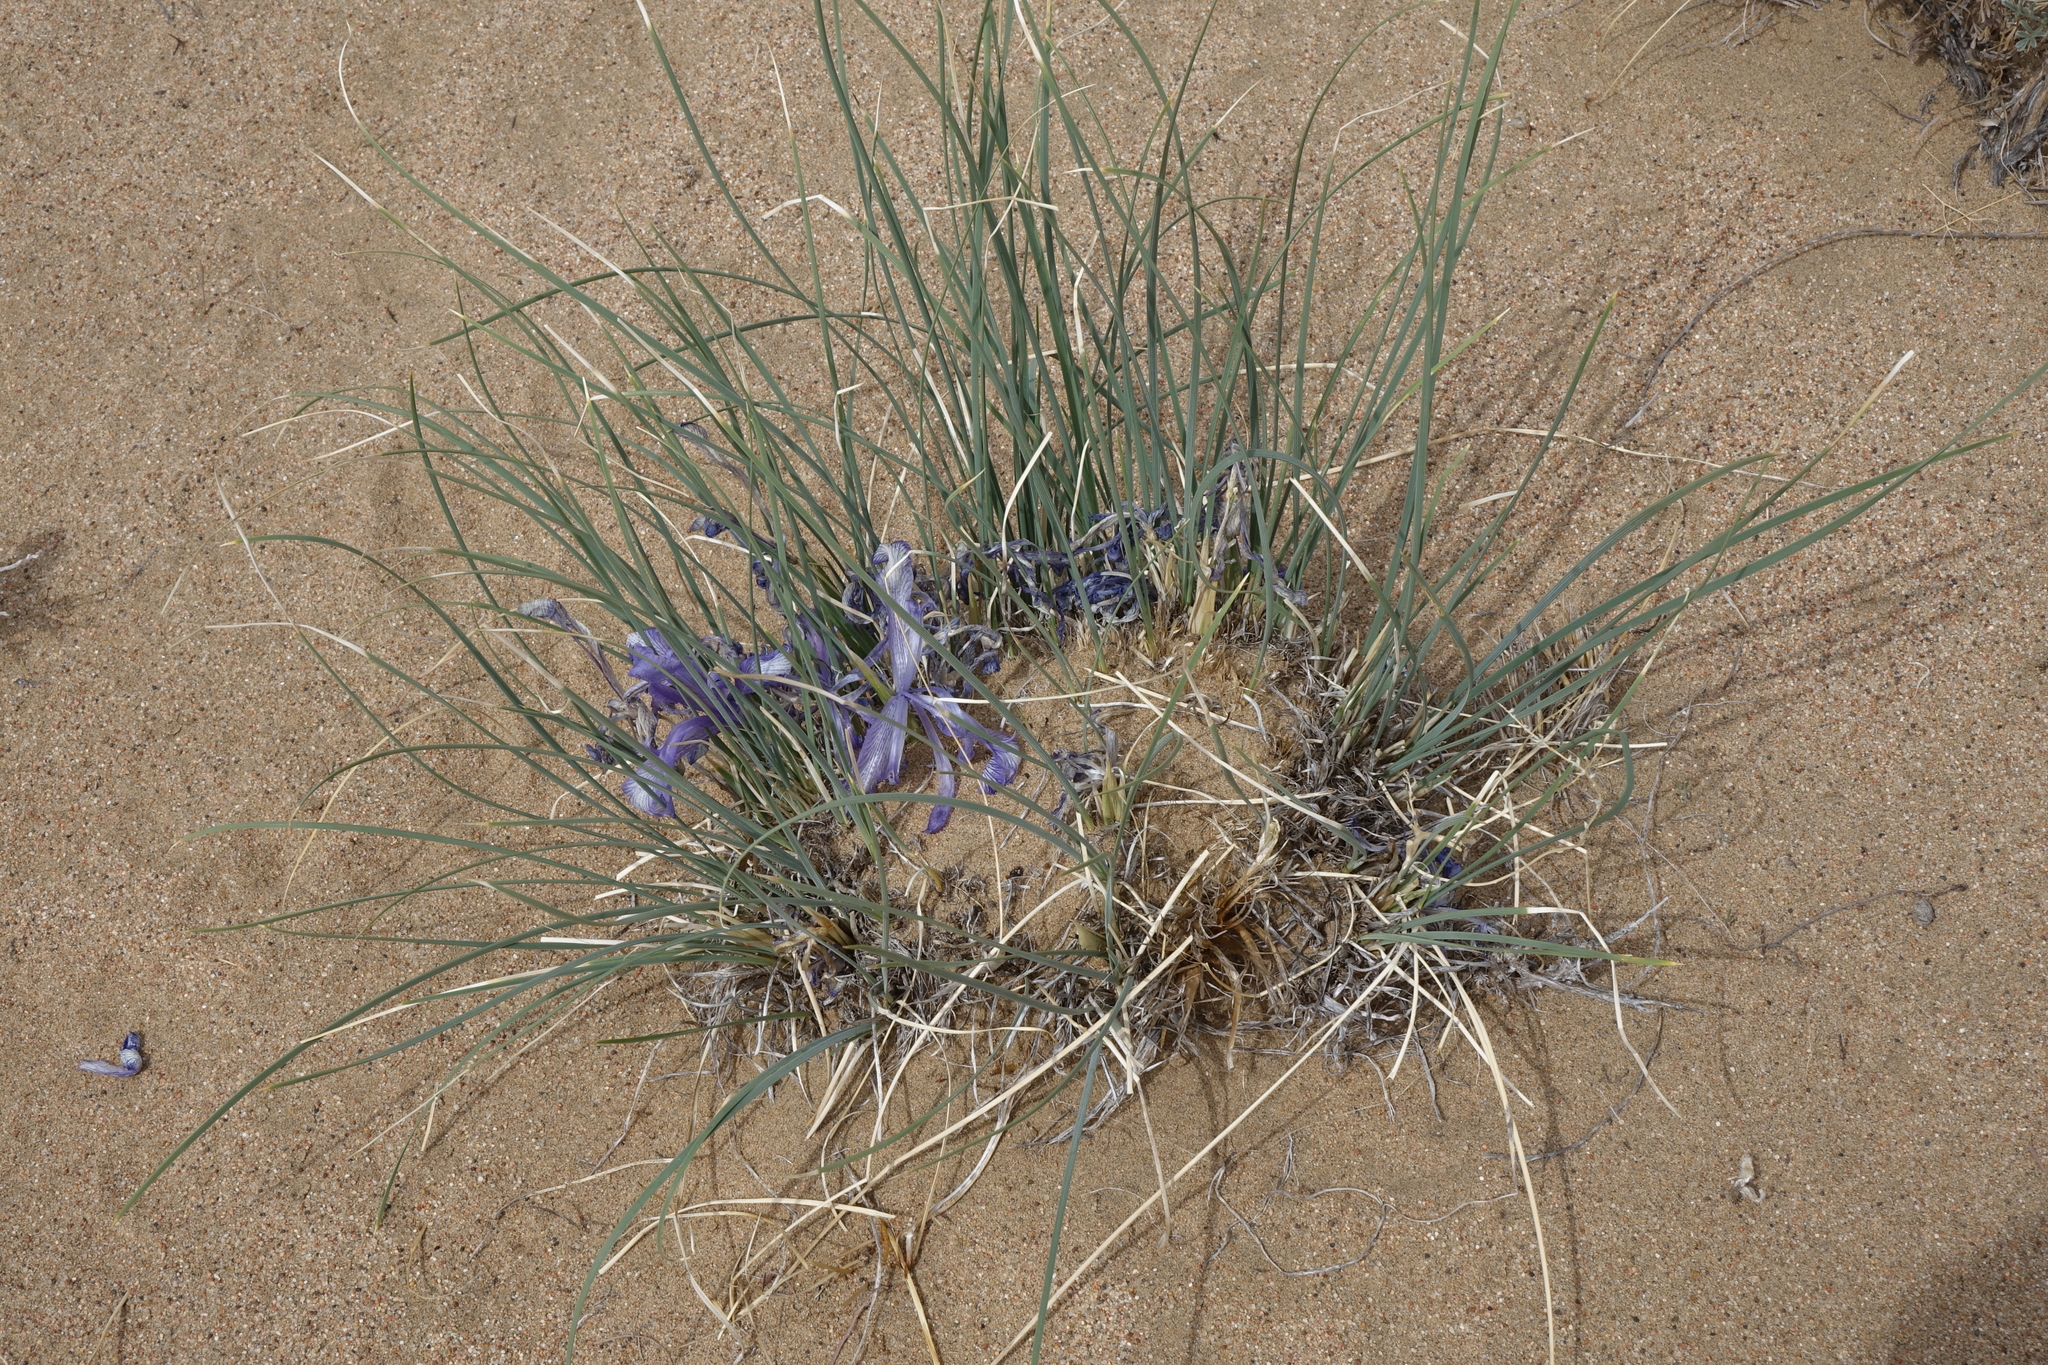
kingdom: Plantae
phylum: Tracheophyta
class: Liliopsida
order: Asparagales
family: Iridaceae
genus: Iris
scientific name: Iris tenuifolia
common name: Slender-leaf iris
